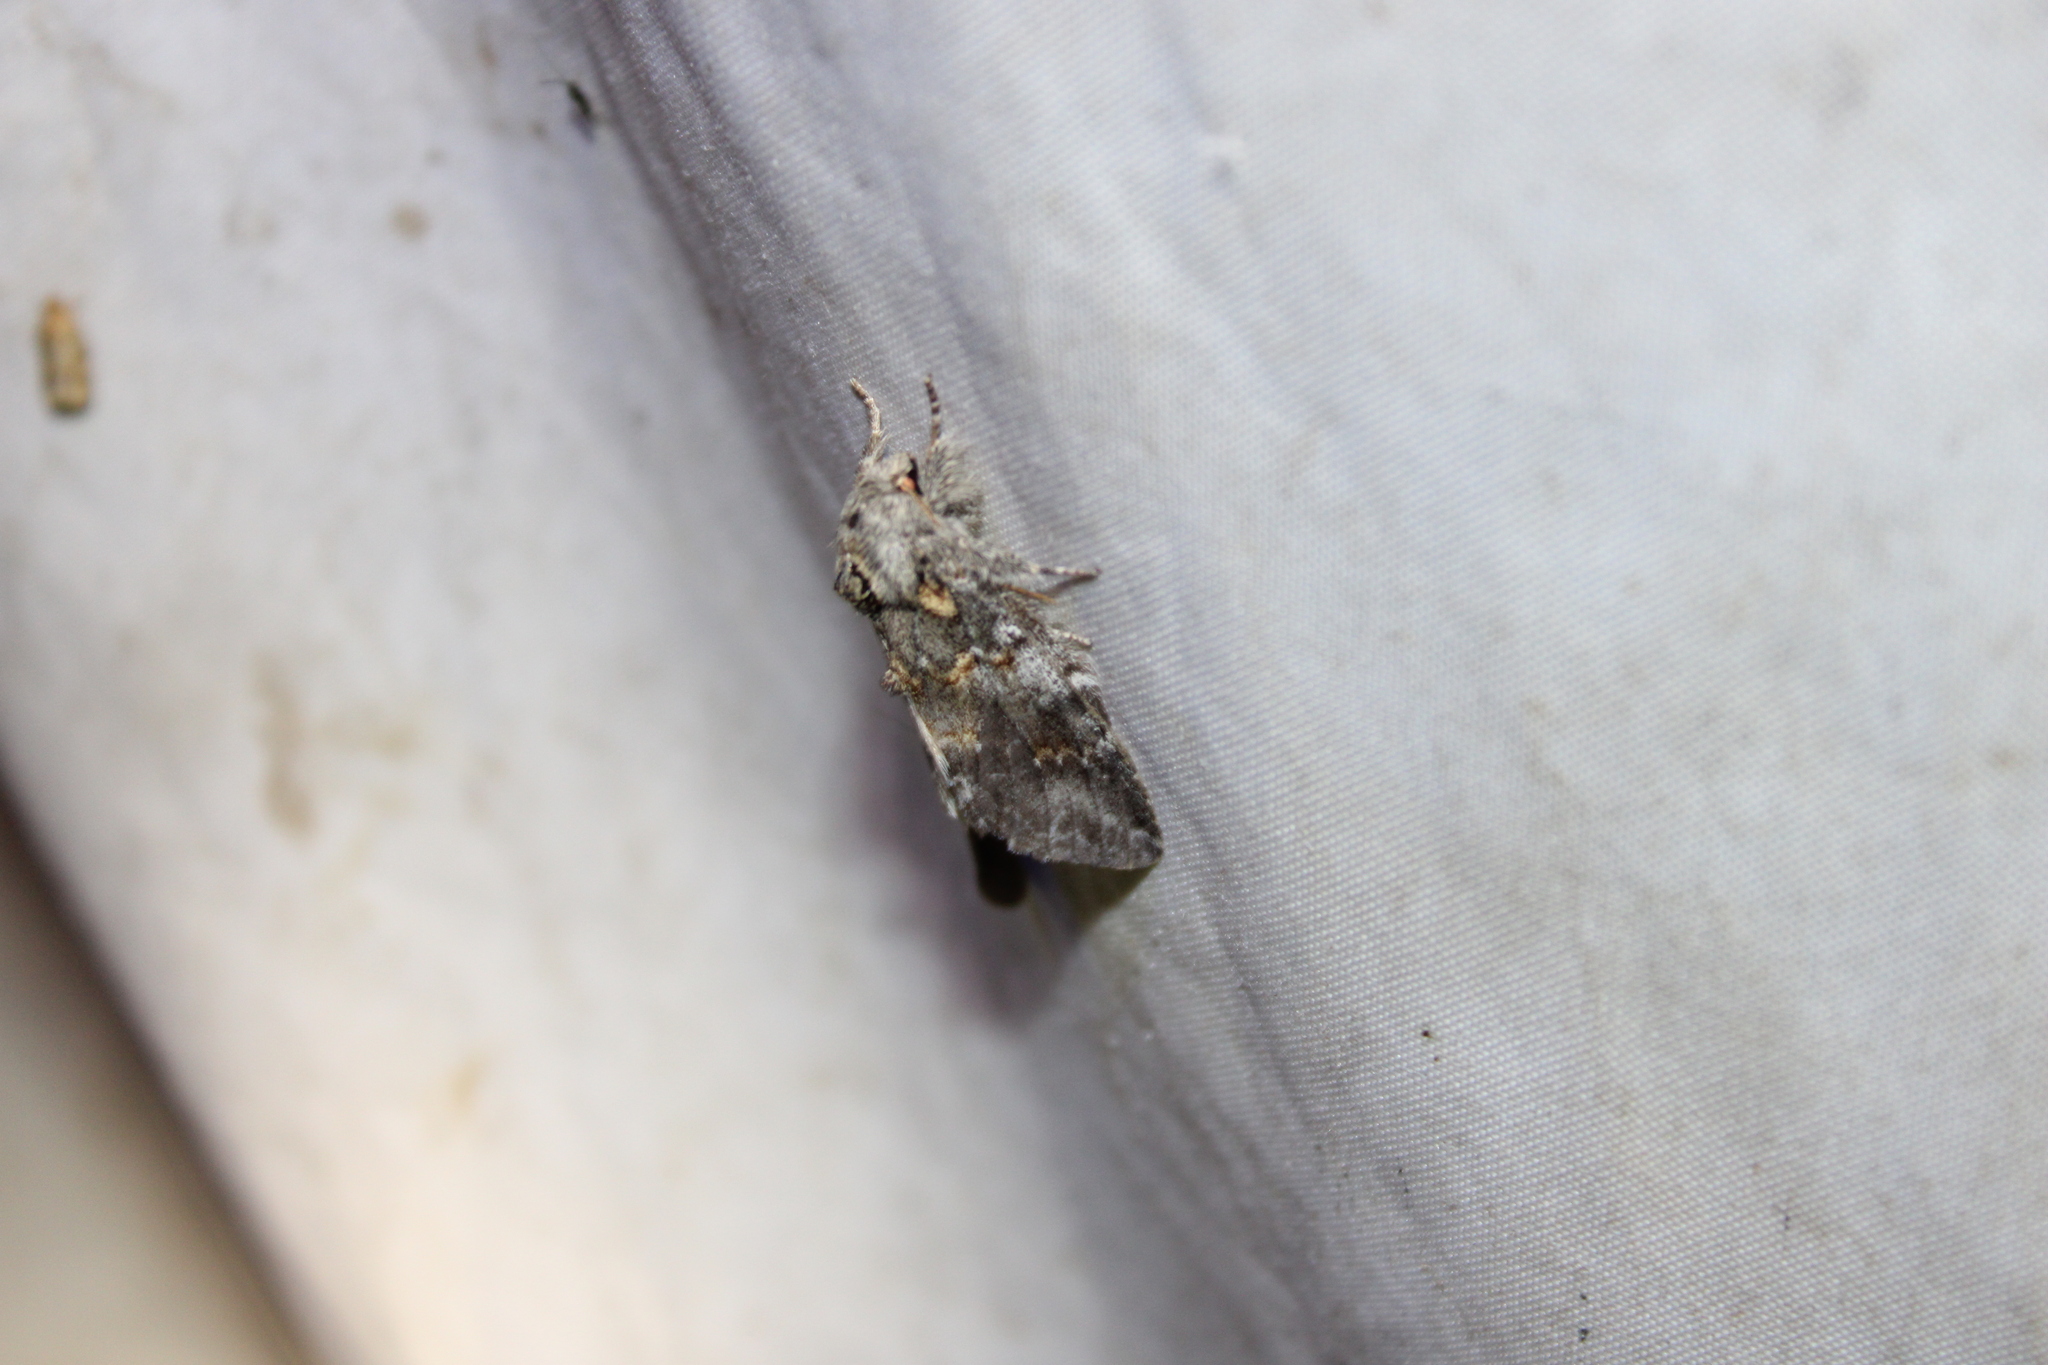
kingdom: Animalia
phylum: Arthropoda
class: Insecta
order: Lepidoptera
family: Notodontidae
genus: Peridea
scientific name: Peridea angulosa
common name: Angulose prominent
